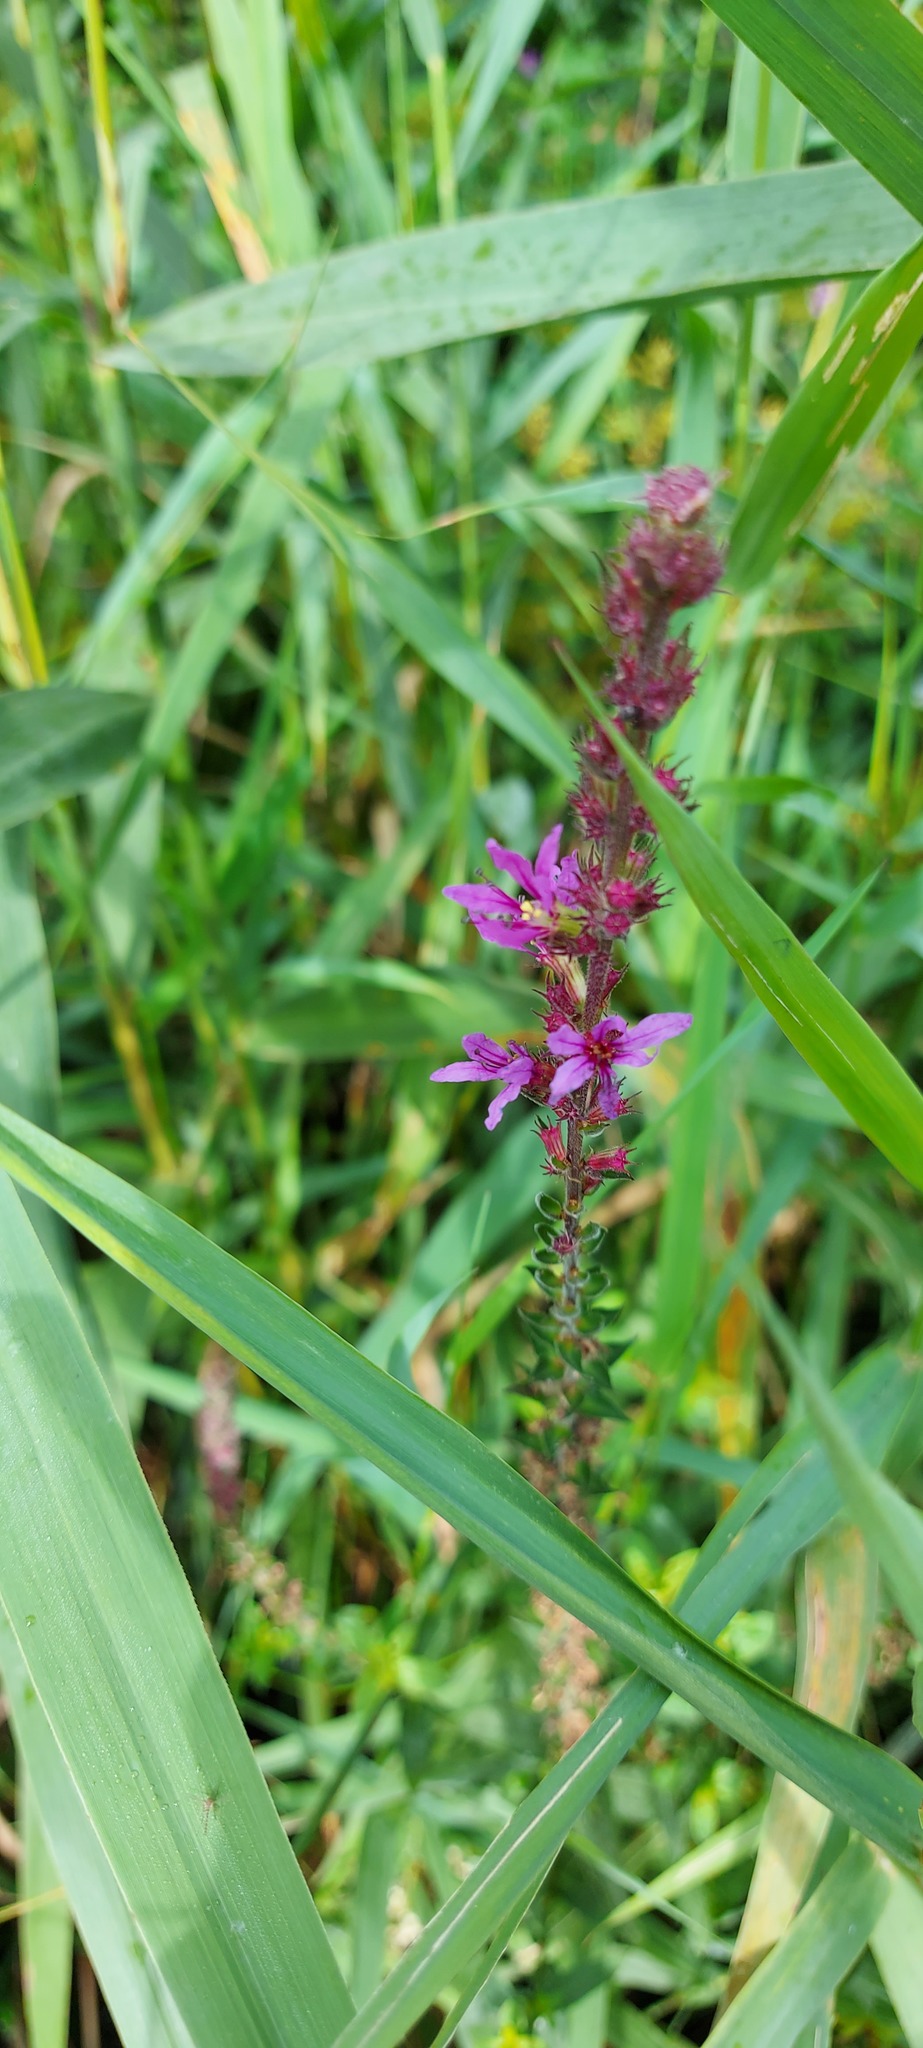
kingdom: Plantae
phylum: Tracheophyta
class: Magnoliopsida
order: Myrtales
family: Lythraceae
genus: Lythrum
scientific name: Lythrum salicaria
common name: Purple loosestrife
